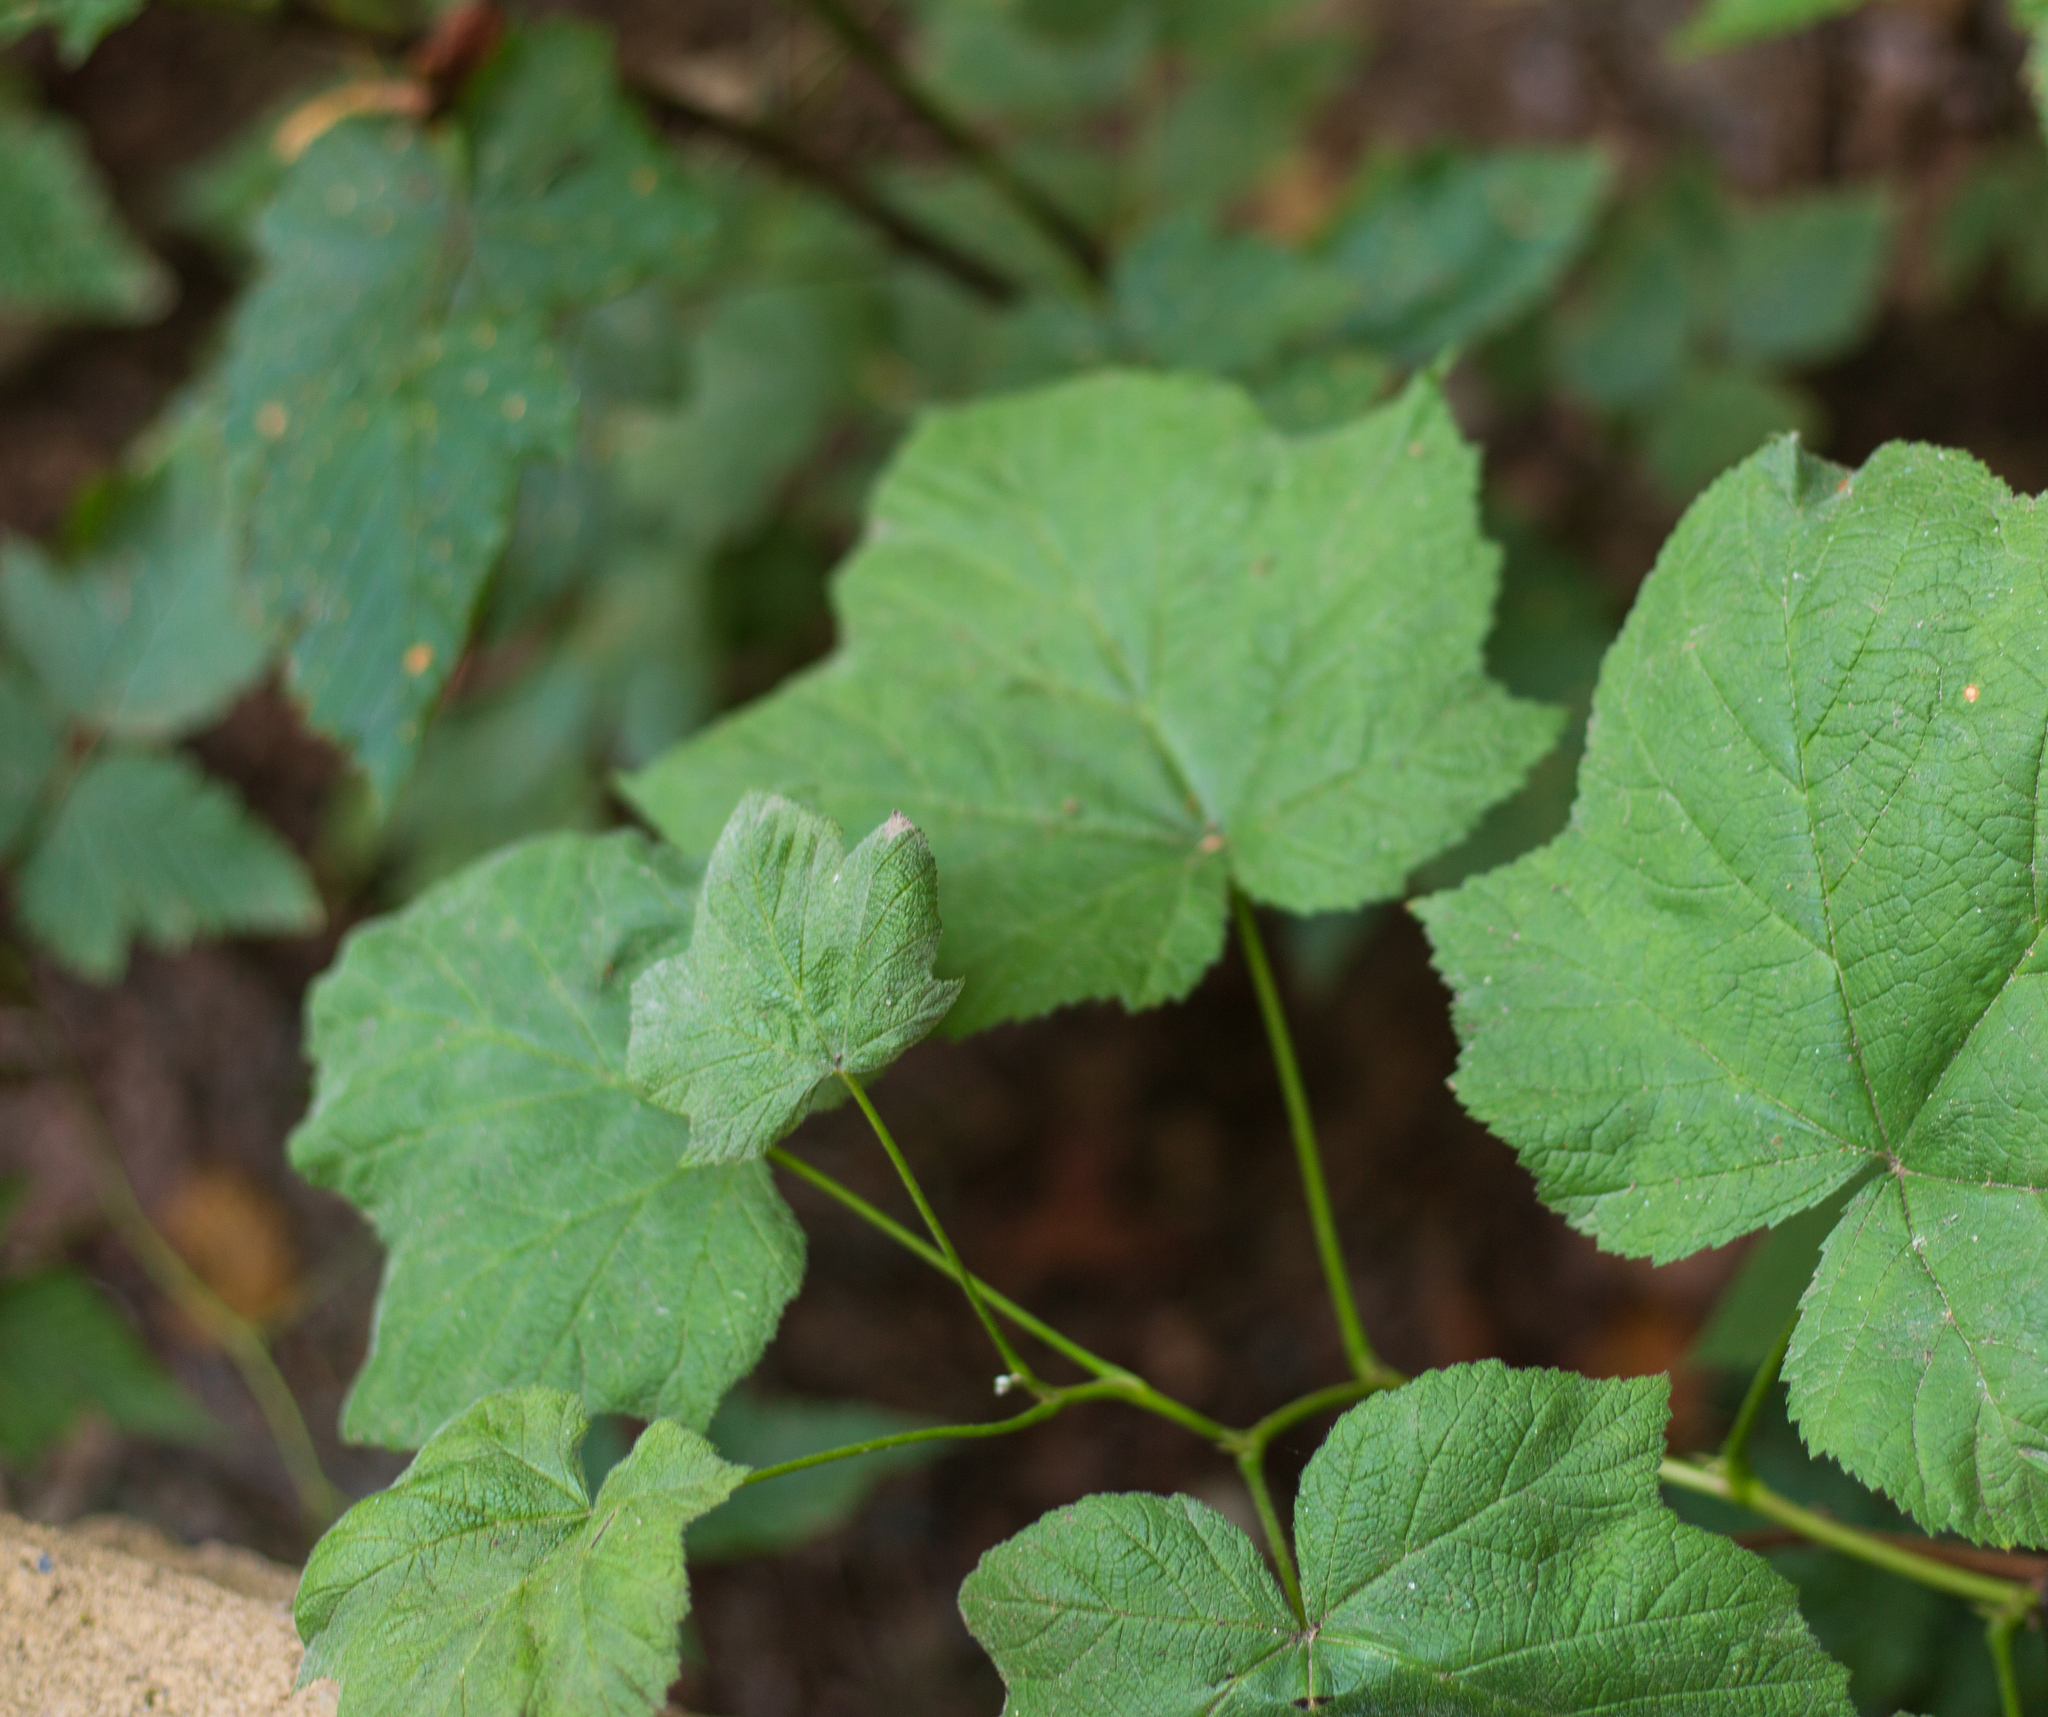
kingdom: Plantae
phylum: Tracheophyta
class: Magnoliopsida
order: Rosales
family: Rosaceae
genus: Rubus
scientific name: Rubus parviflorus
